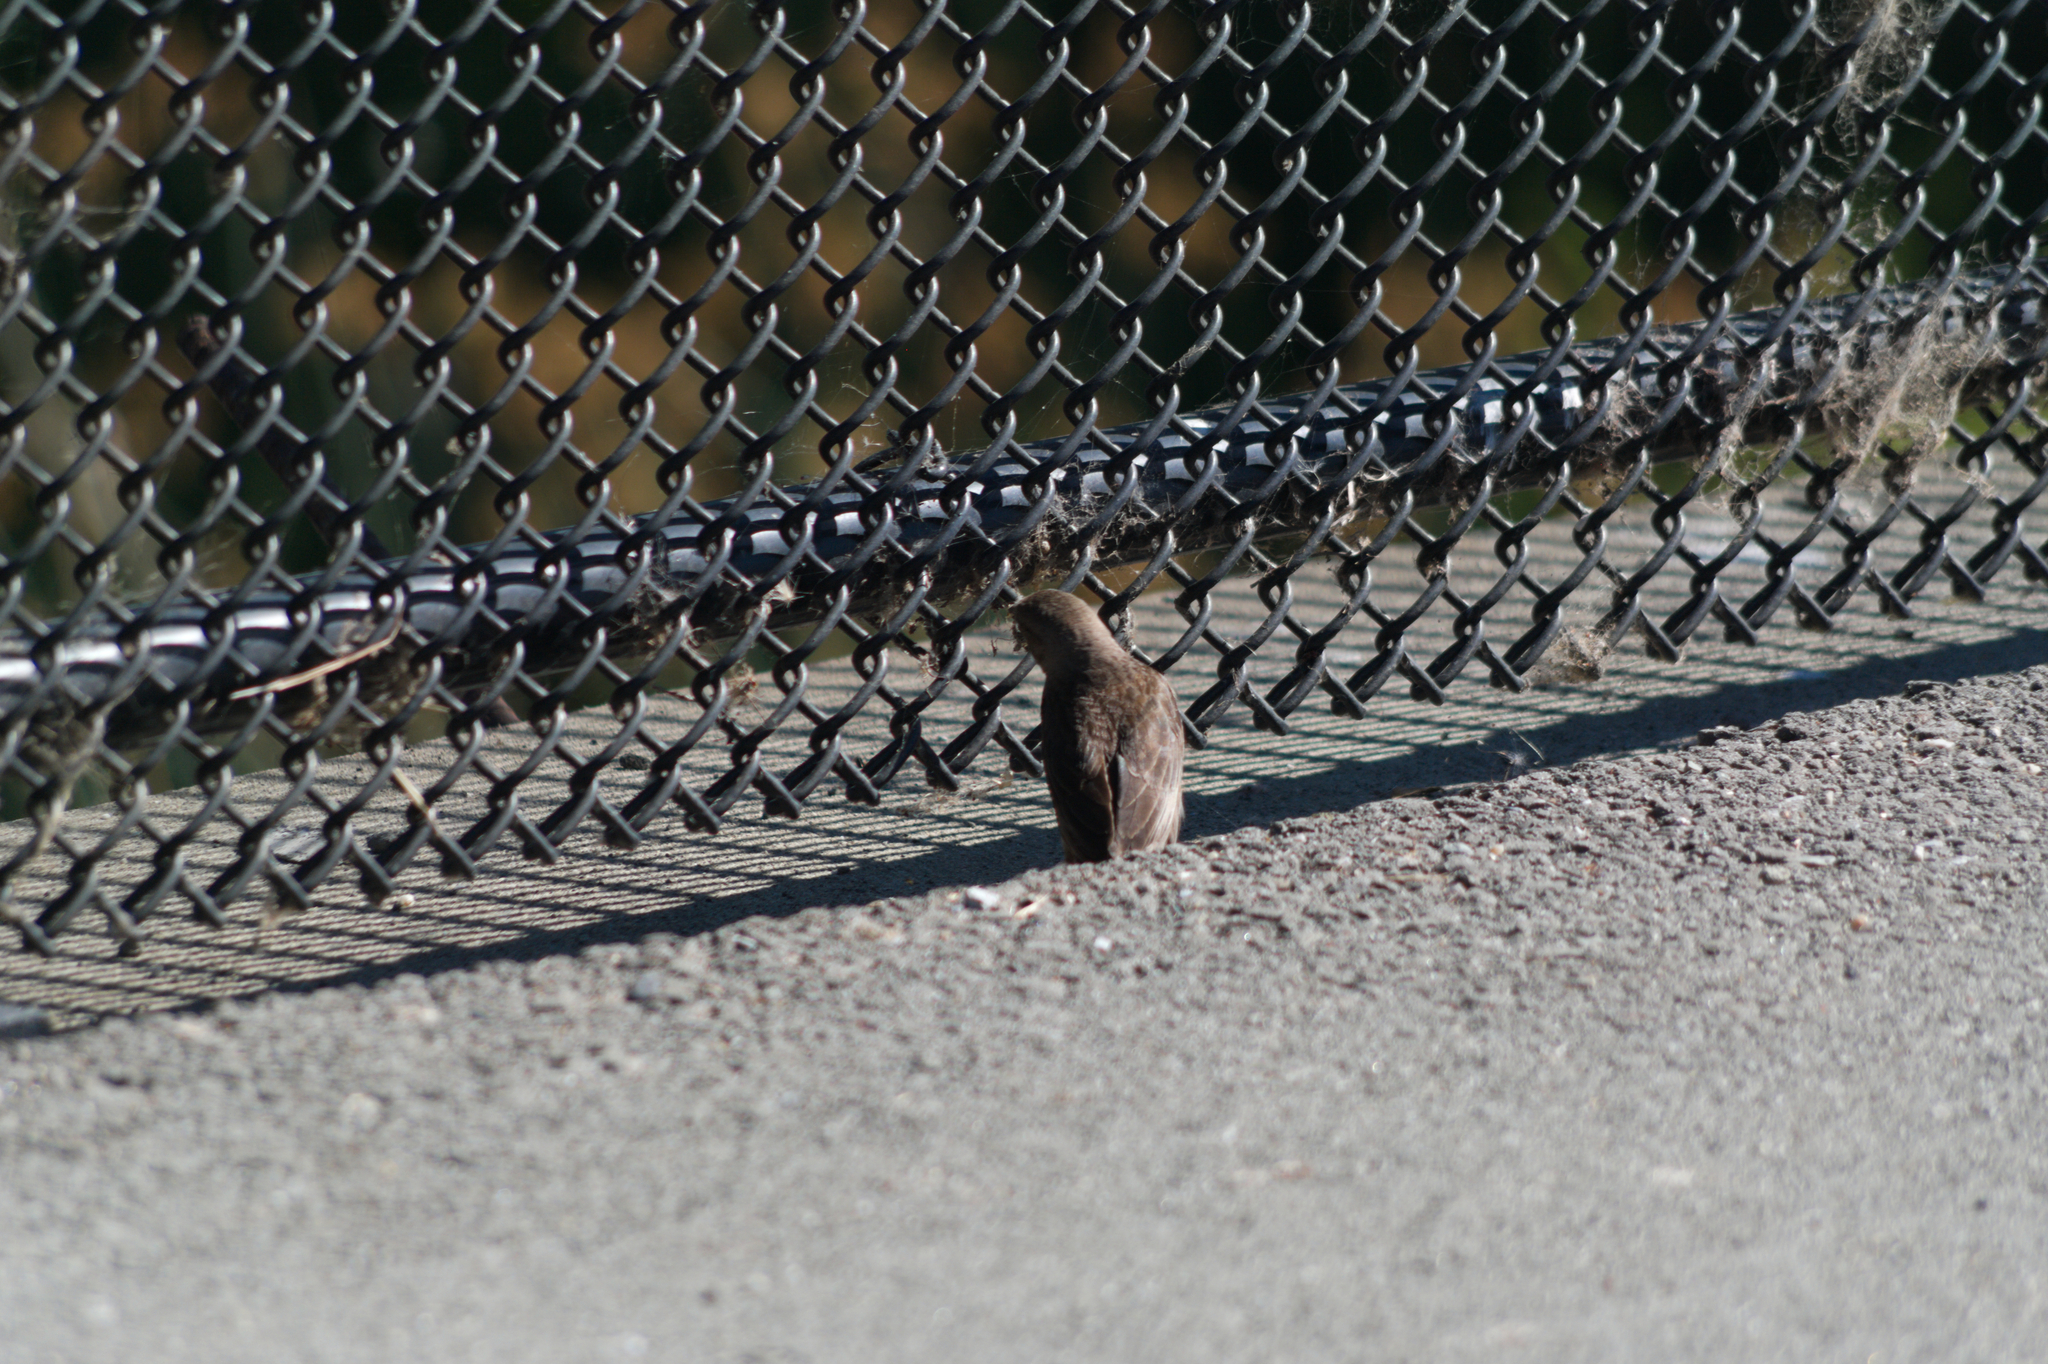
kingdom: Animalia
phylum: Chordata
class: Aves
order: Passeriformes
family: Icteridae
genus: Molothrus
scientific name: Molothrus ater
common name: Brown-headed cowbird
